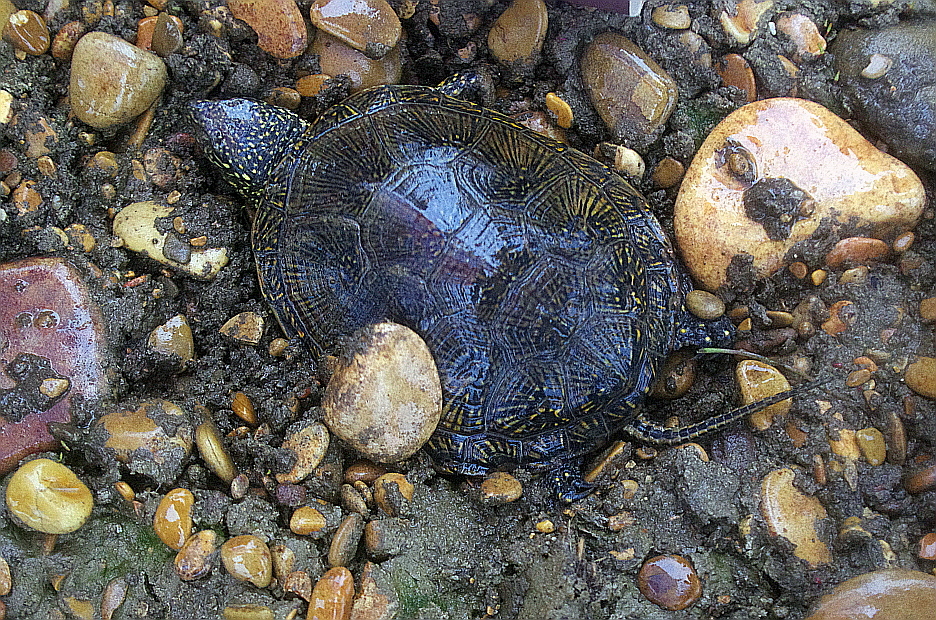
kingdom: Animalia
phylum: Chordata
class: Testudines
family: Emydidae
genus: Emys
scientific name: Emys orbicularis
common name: European pond turtle
